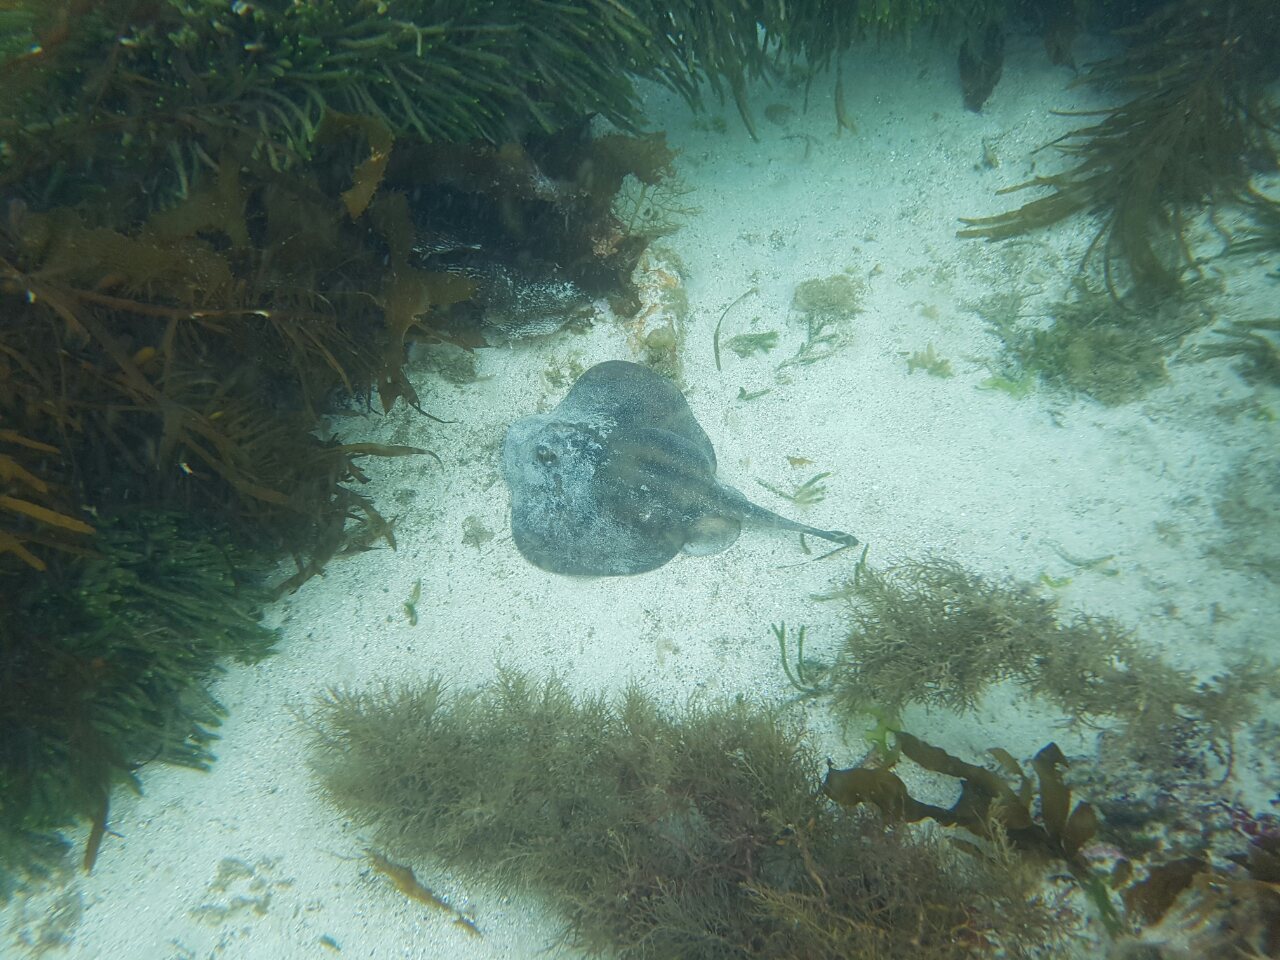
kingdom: Animalia
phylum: Chordata
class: Elasmobranchii
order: Myliobatiformes
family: Urolophidae
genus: Urolophus
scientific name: Urolophus cruciatus
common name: Banded stingaree
